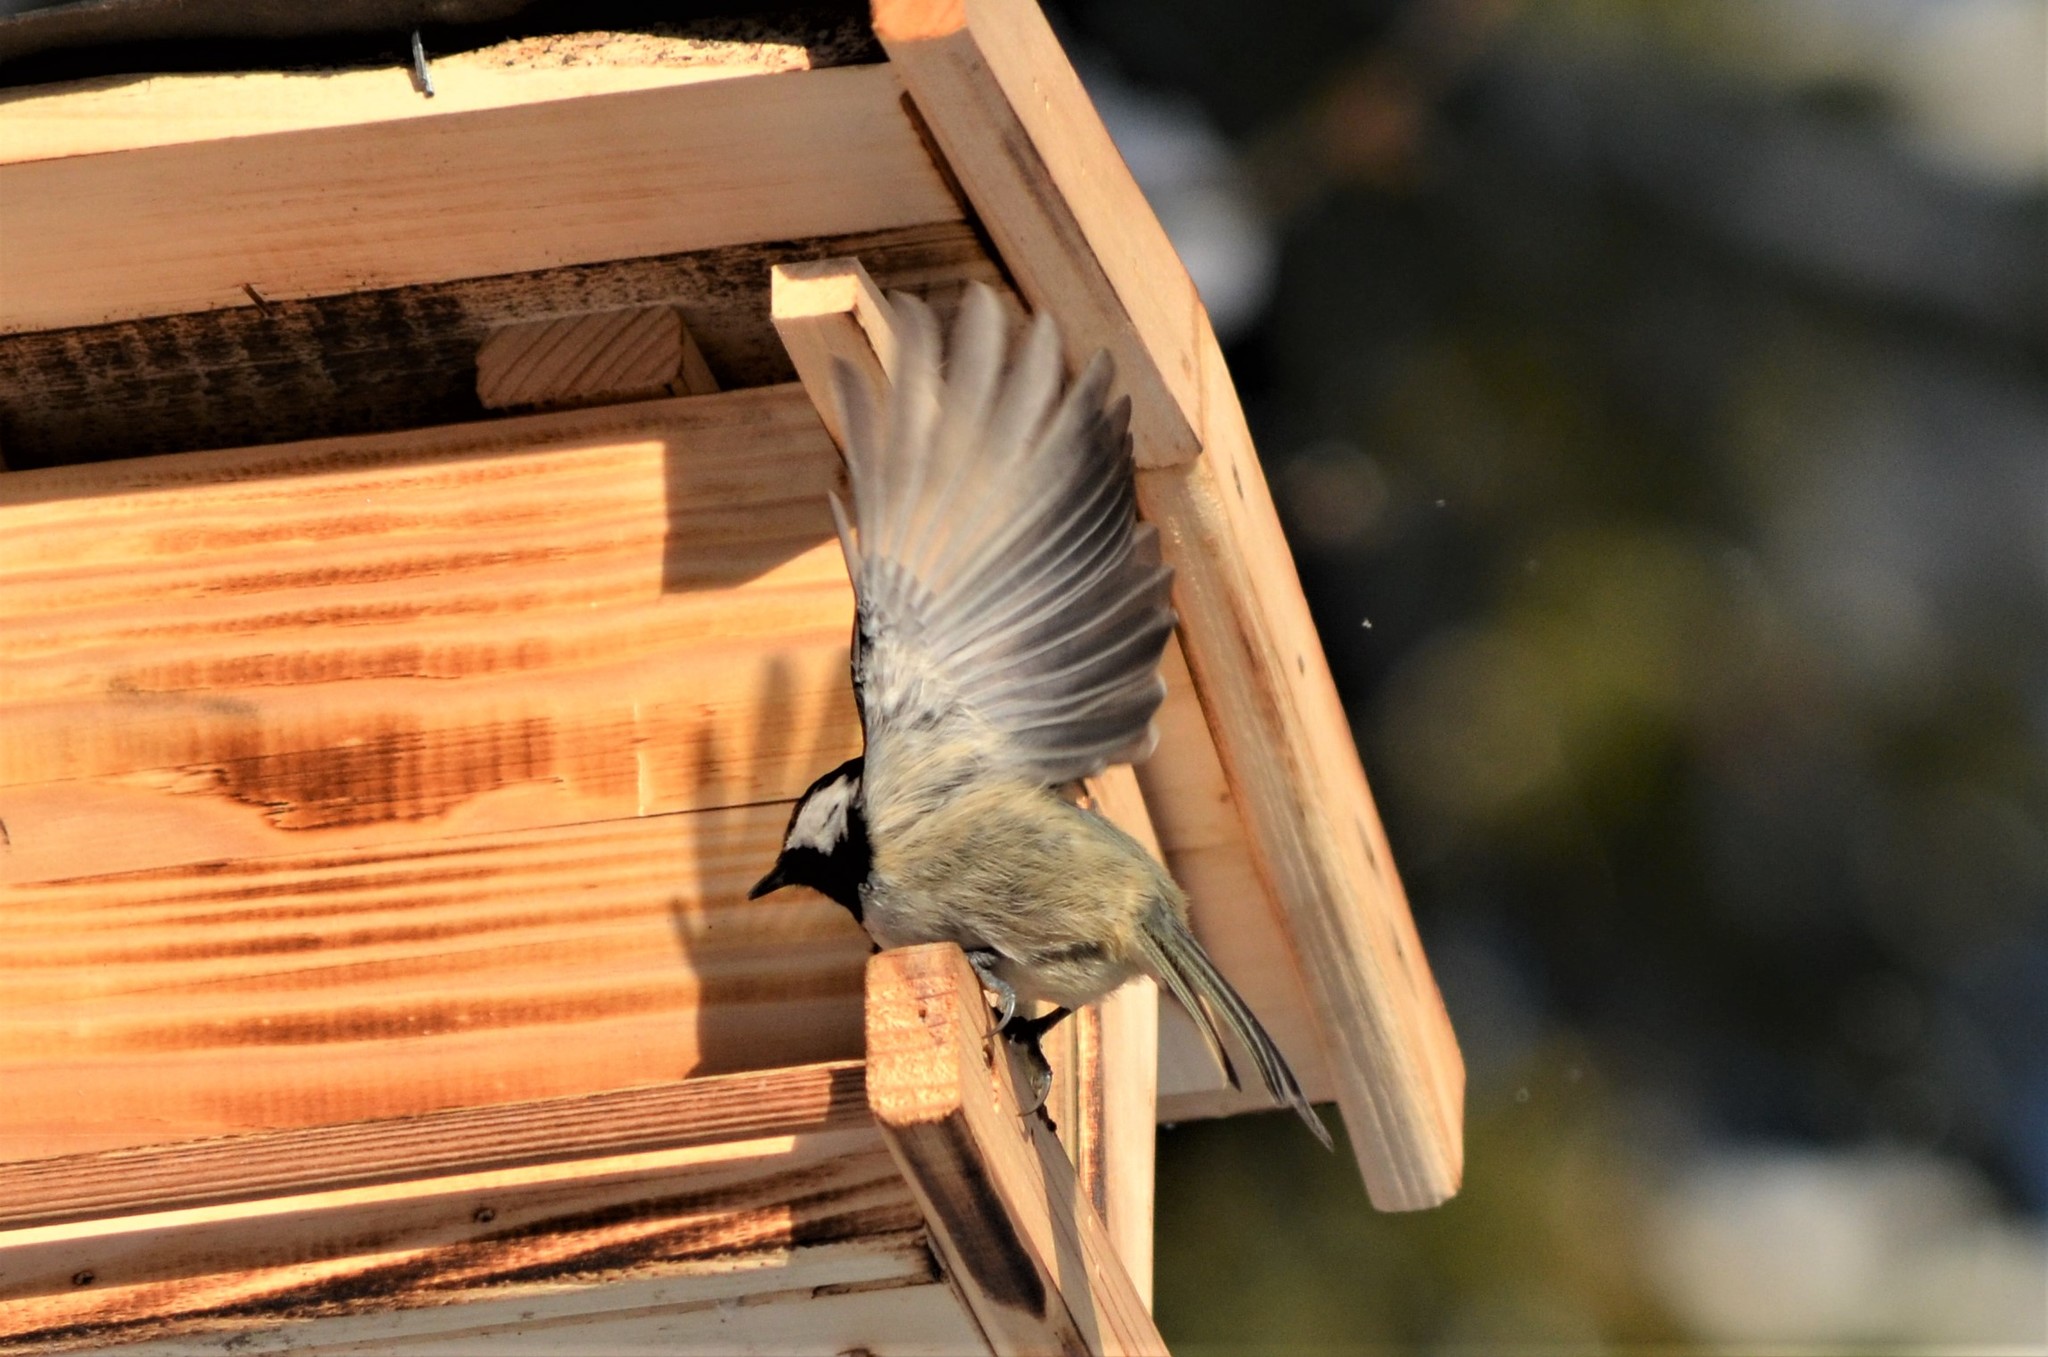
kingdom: Animalia
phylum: Chordata
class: Aves
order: Passeriformes
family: Paridae
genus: Periparus
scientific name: Periparus ater
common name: Coal tit
